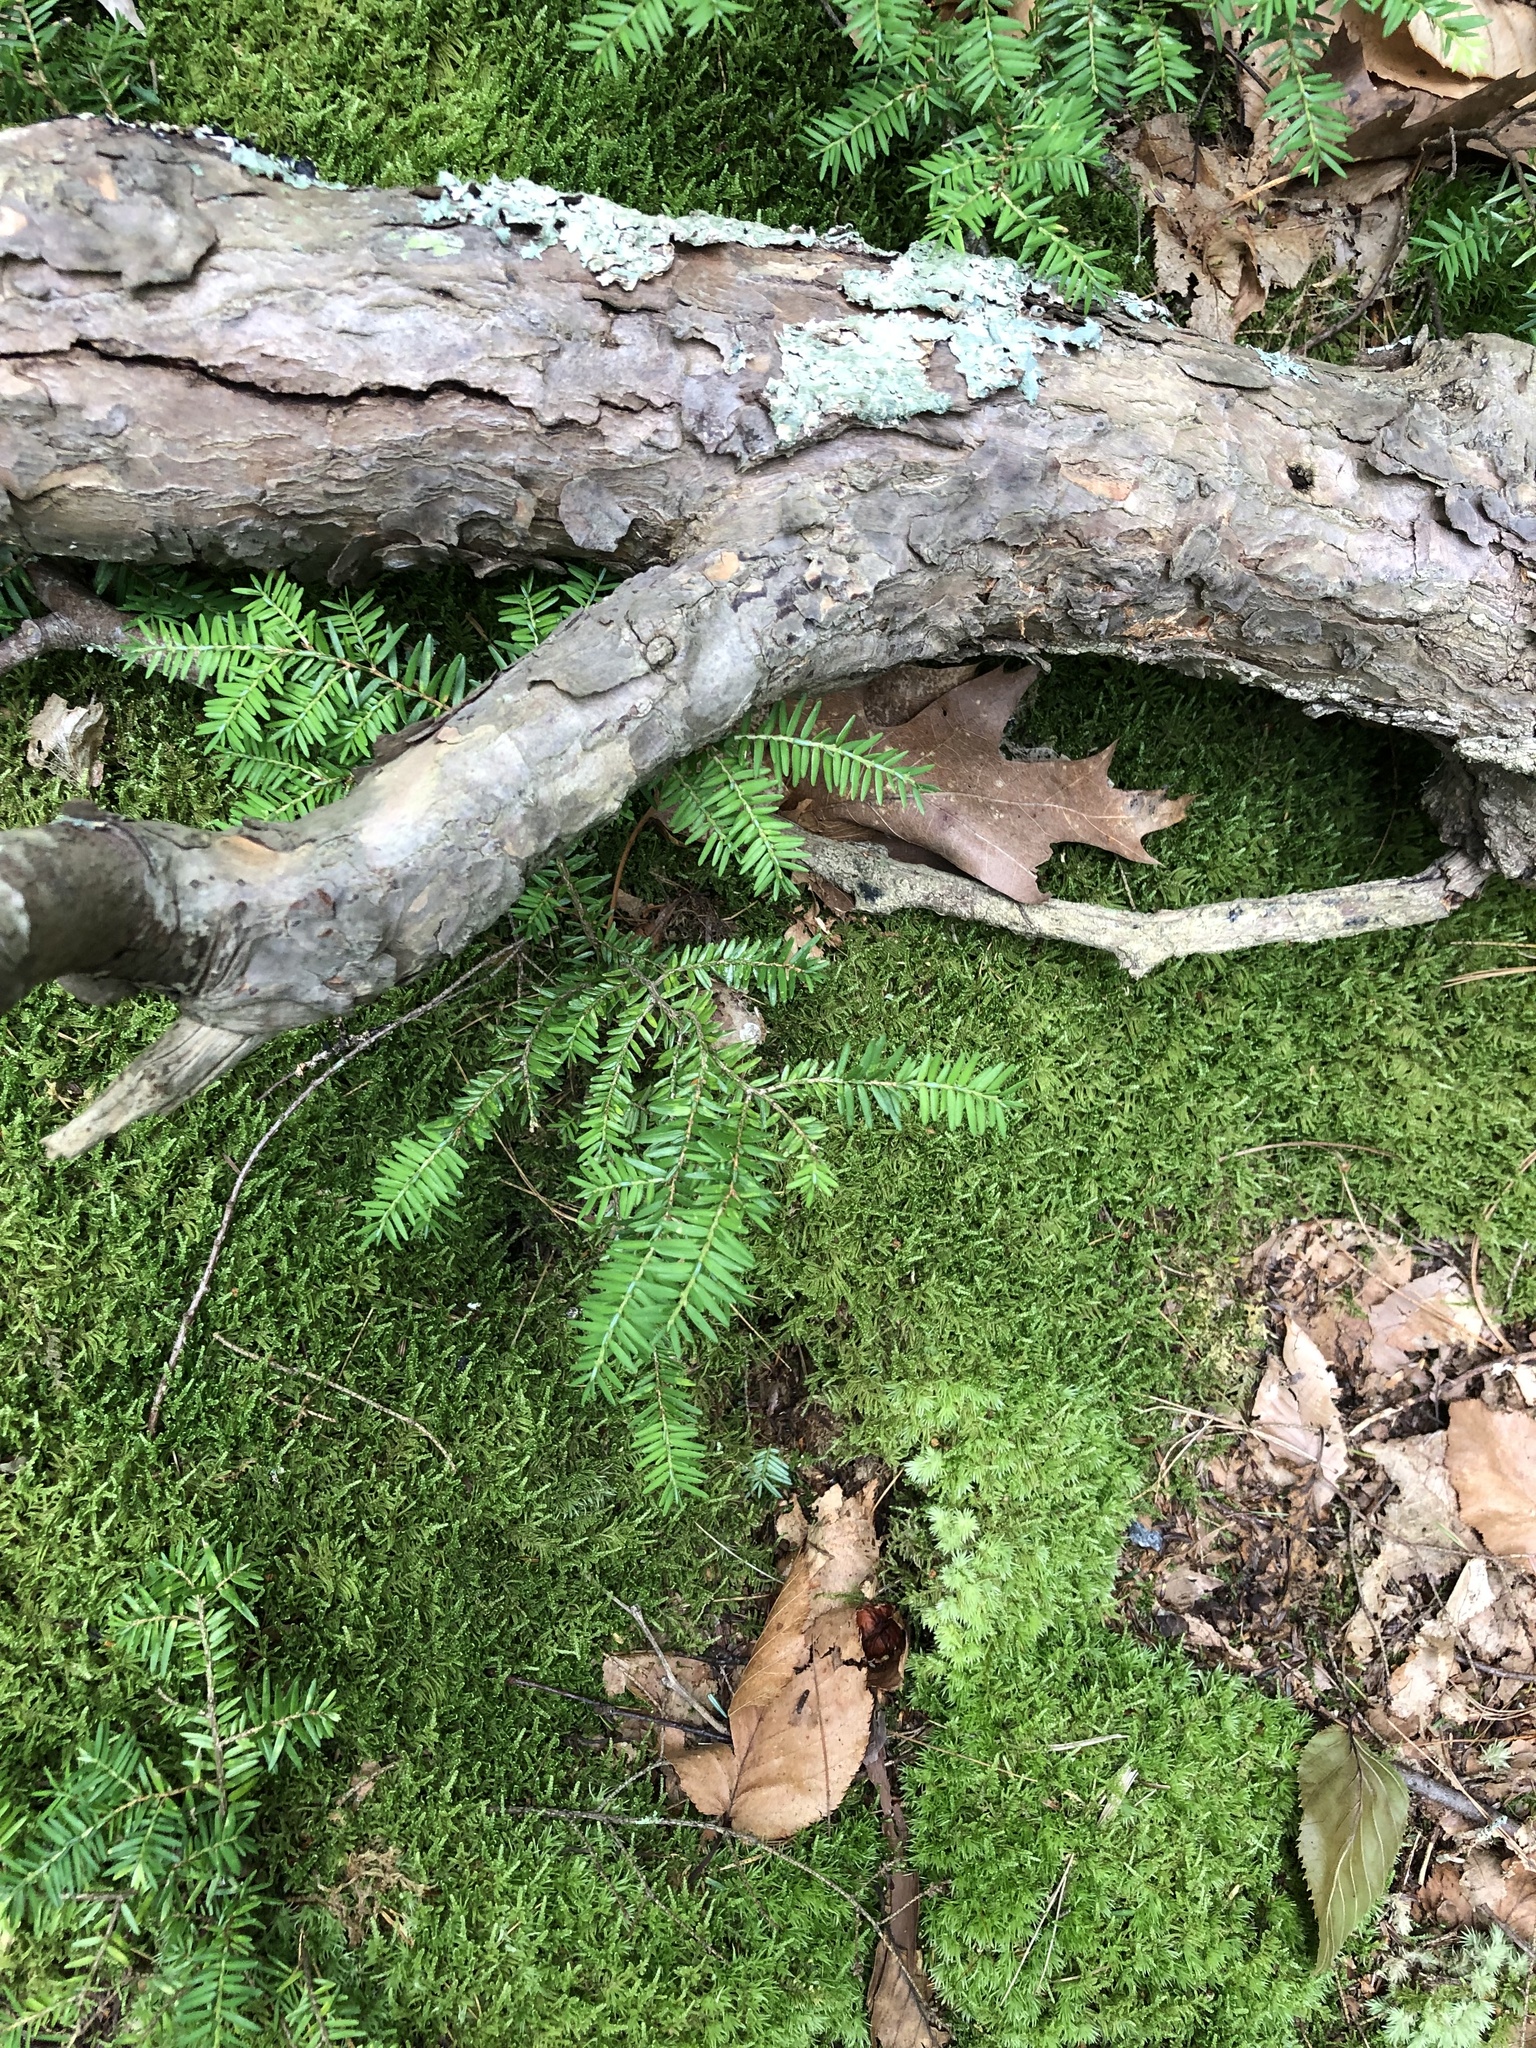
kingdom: Plantae
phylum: Tracheophyta
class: Pinopsida
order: Pinales
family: Pinaceae
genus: Tsuga
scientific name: Tsuga canadensis
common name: Eastern hemlock
